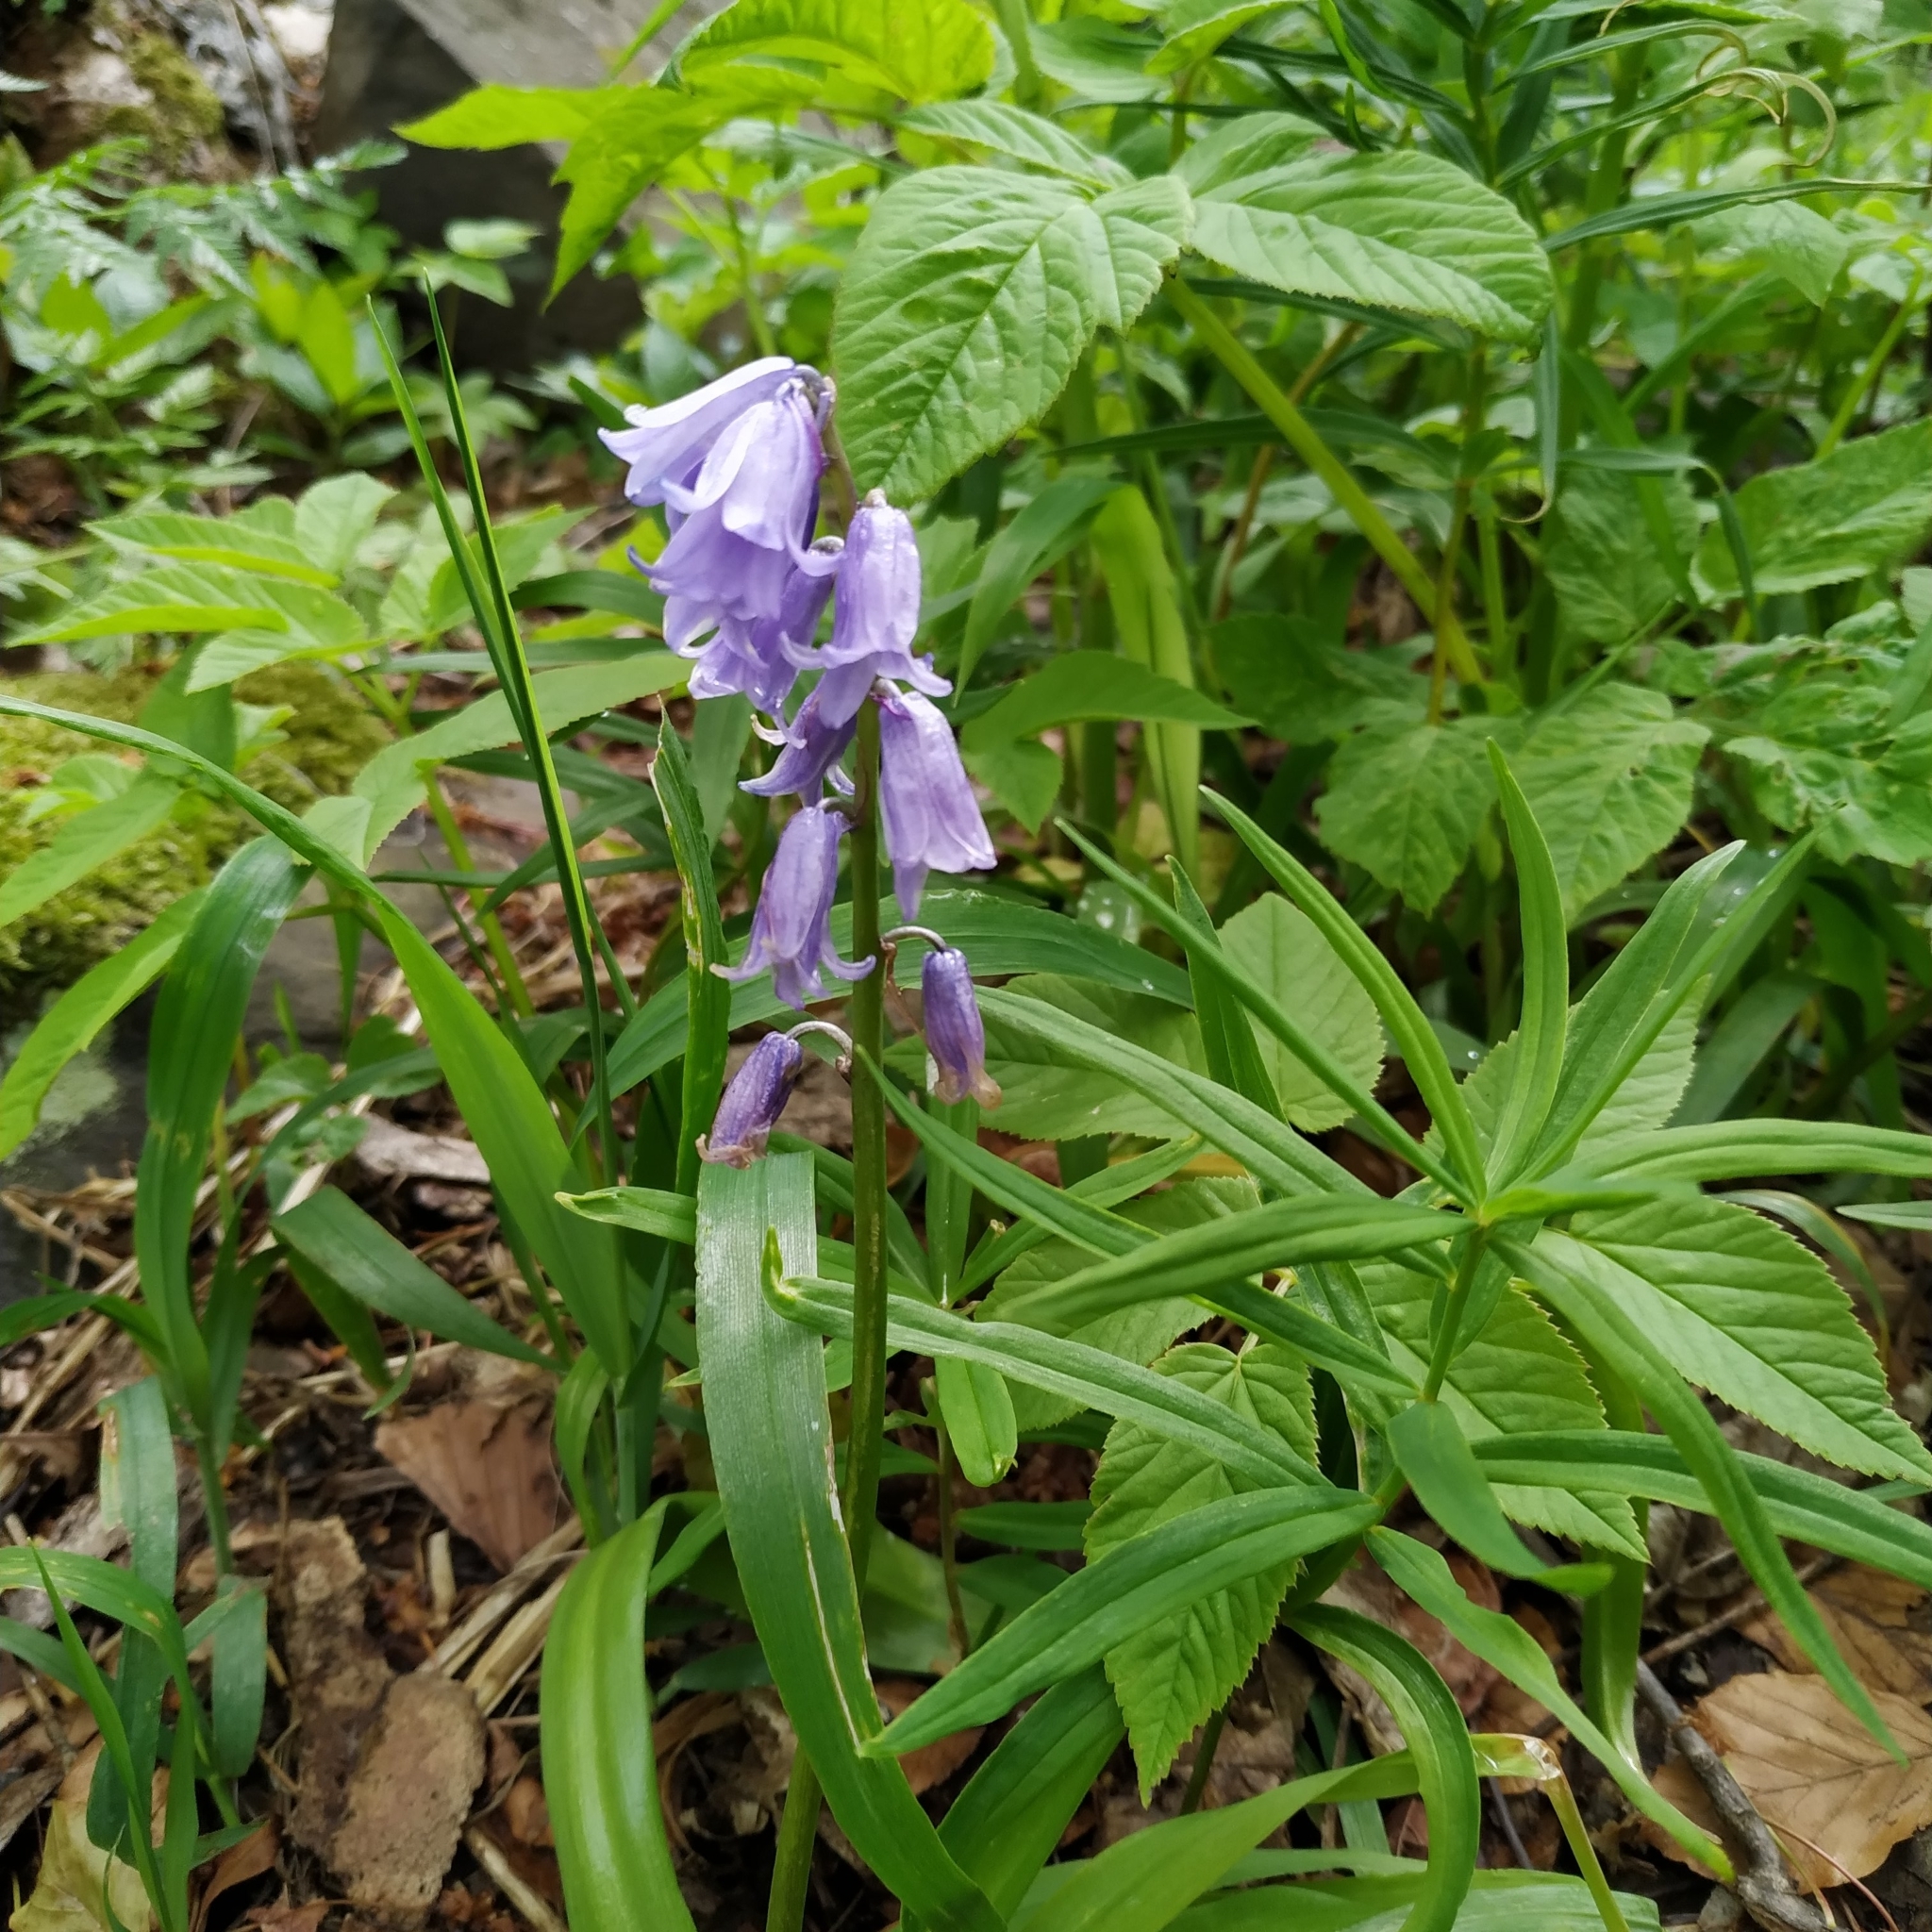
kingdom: Plantae
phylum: Tracheophyta
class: Liliopsida
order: Asparagales
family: Asparagaceae
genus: Hyacinthoides
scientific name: Hyacinthoides non-scripta
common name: Bluebell
